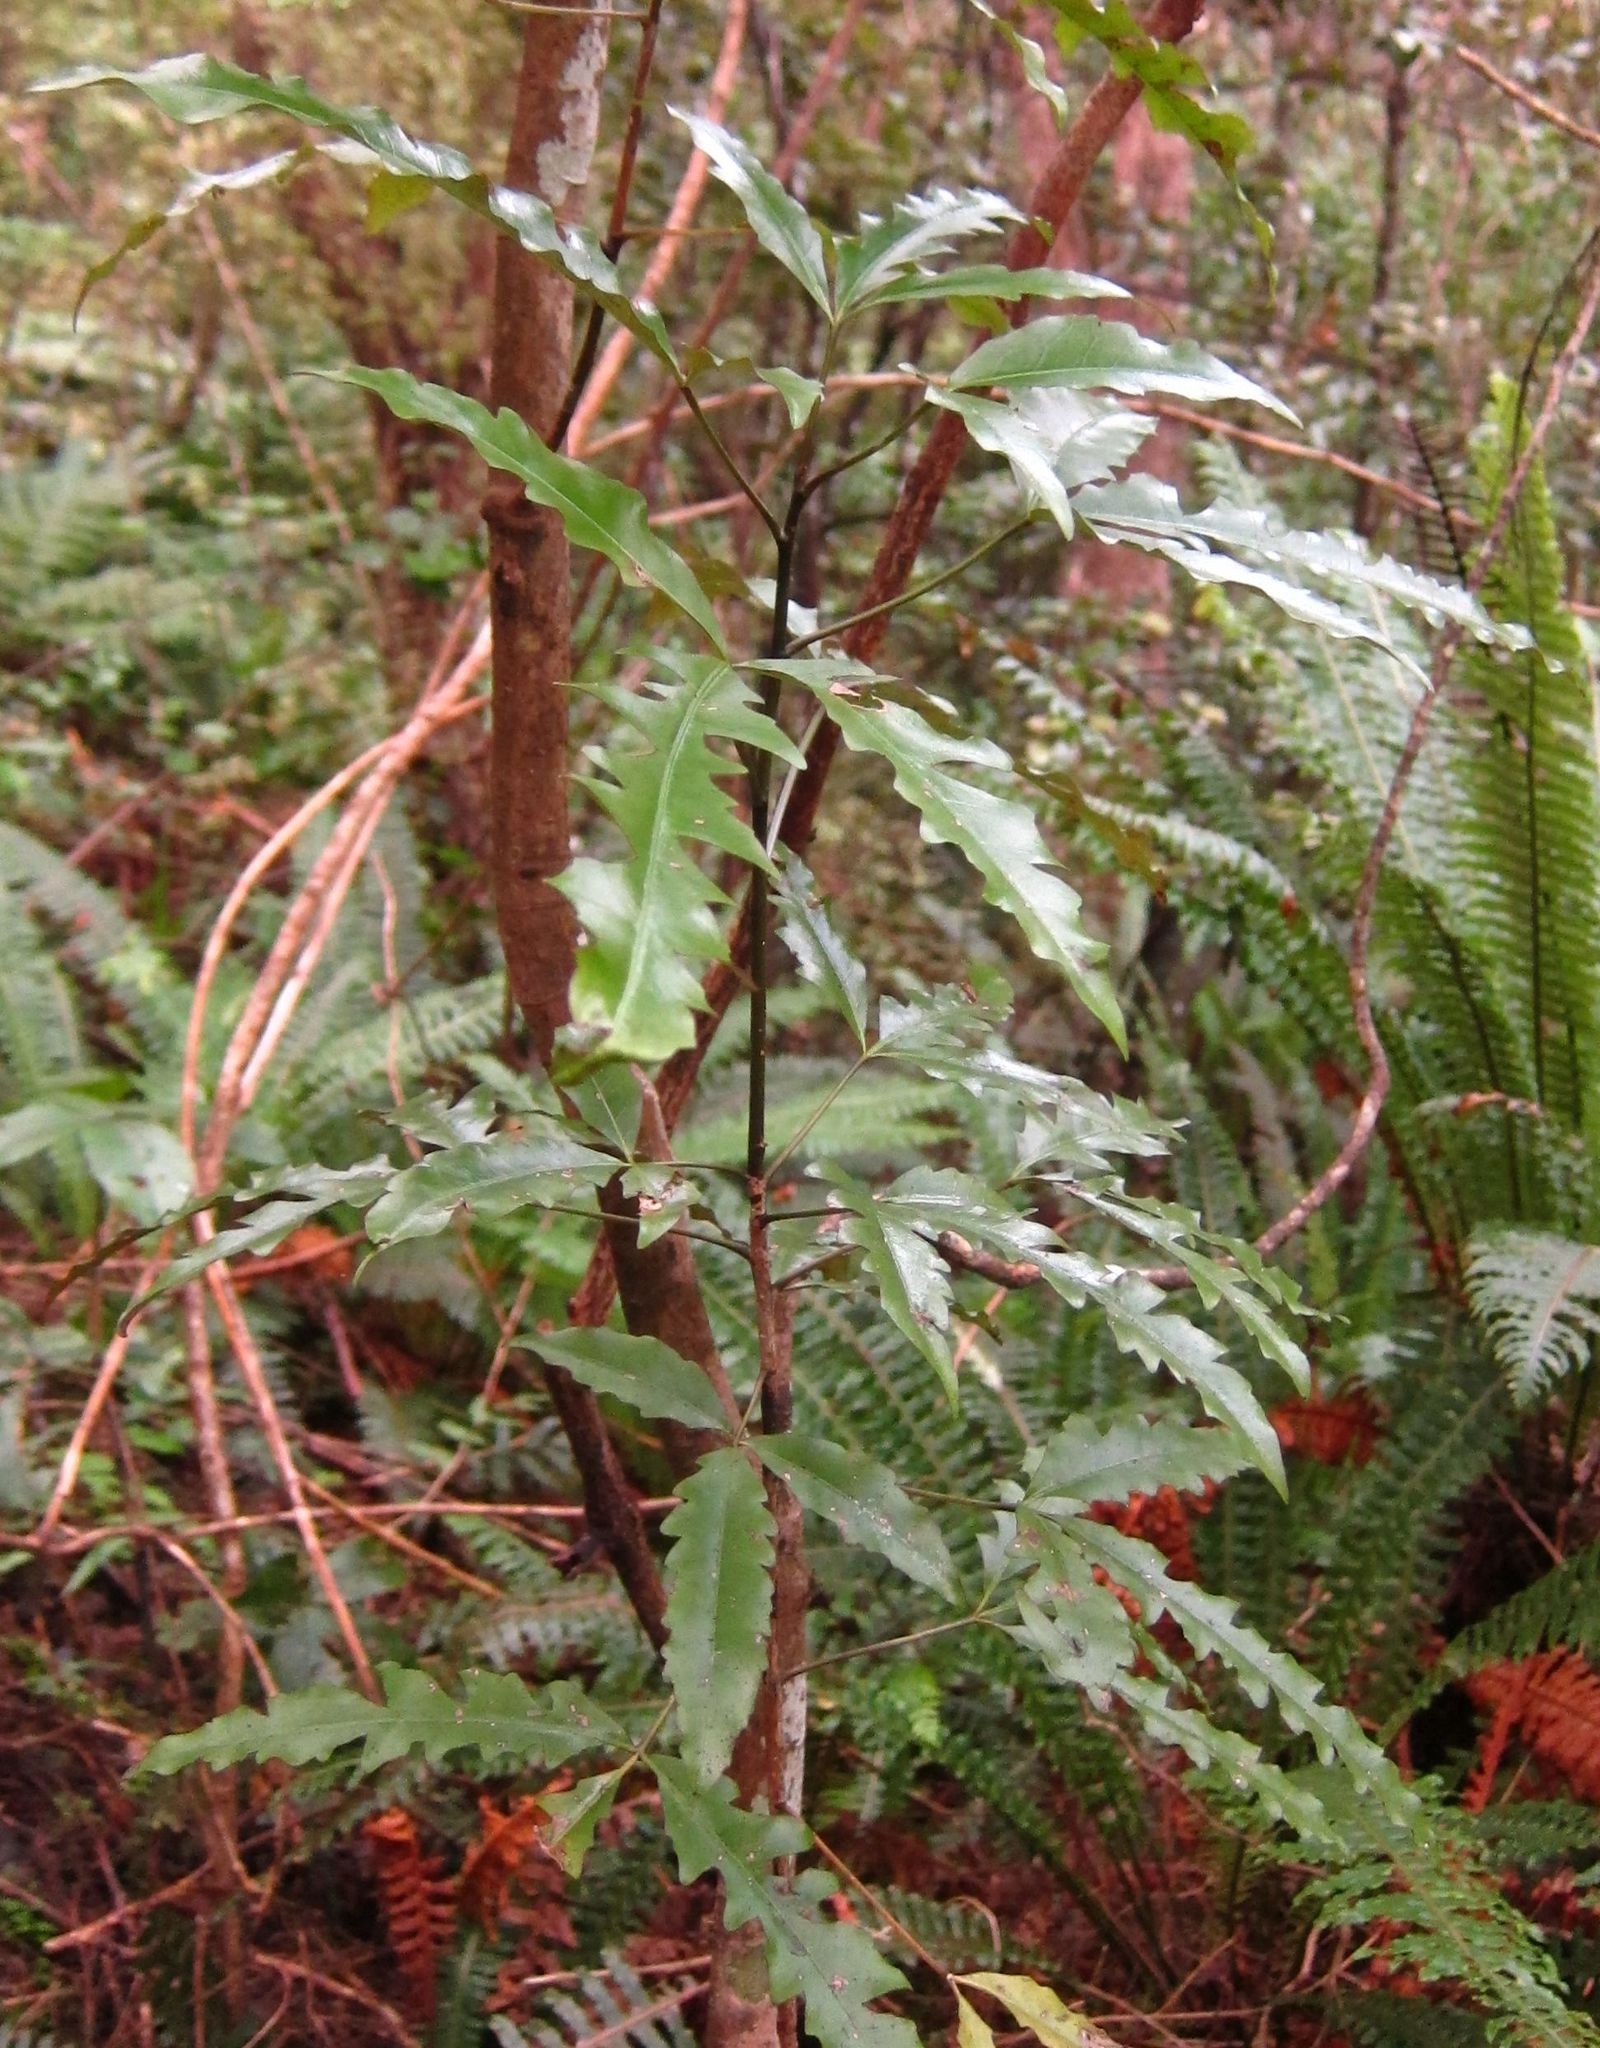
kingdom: Plantae
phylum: Tracheophyta
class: Magnoliopsida
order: Apiales
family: Araliaceae
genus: Raukaua
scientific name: Raukaua edgerleyi
